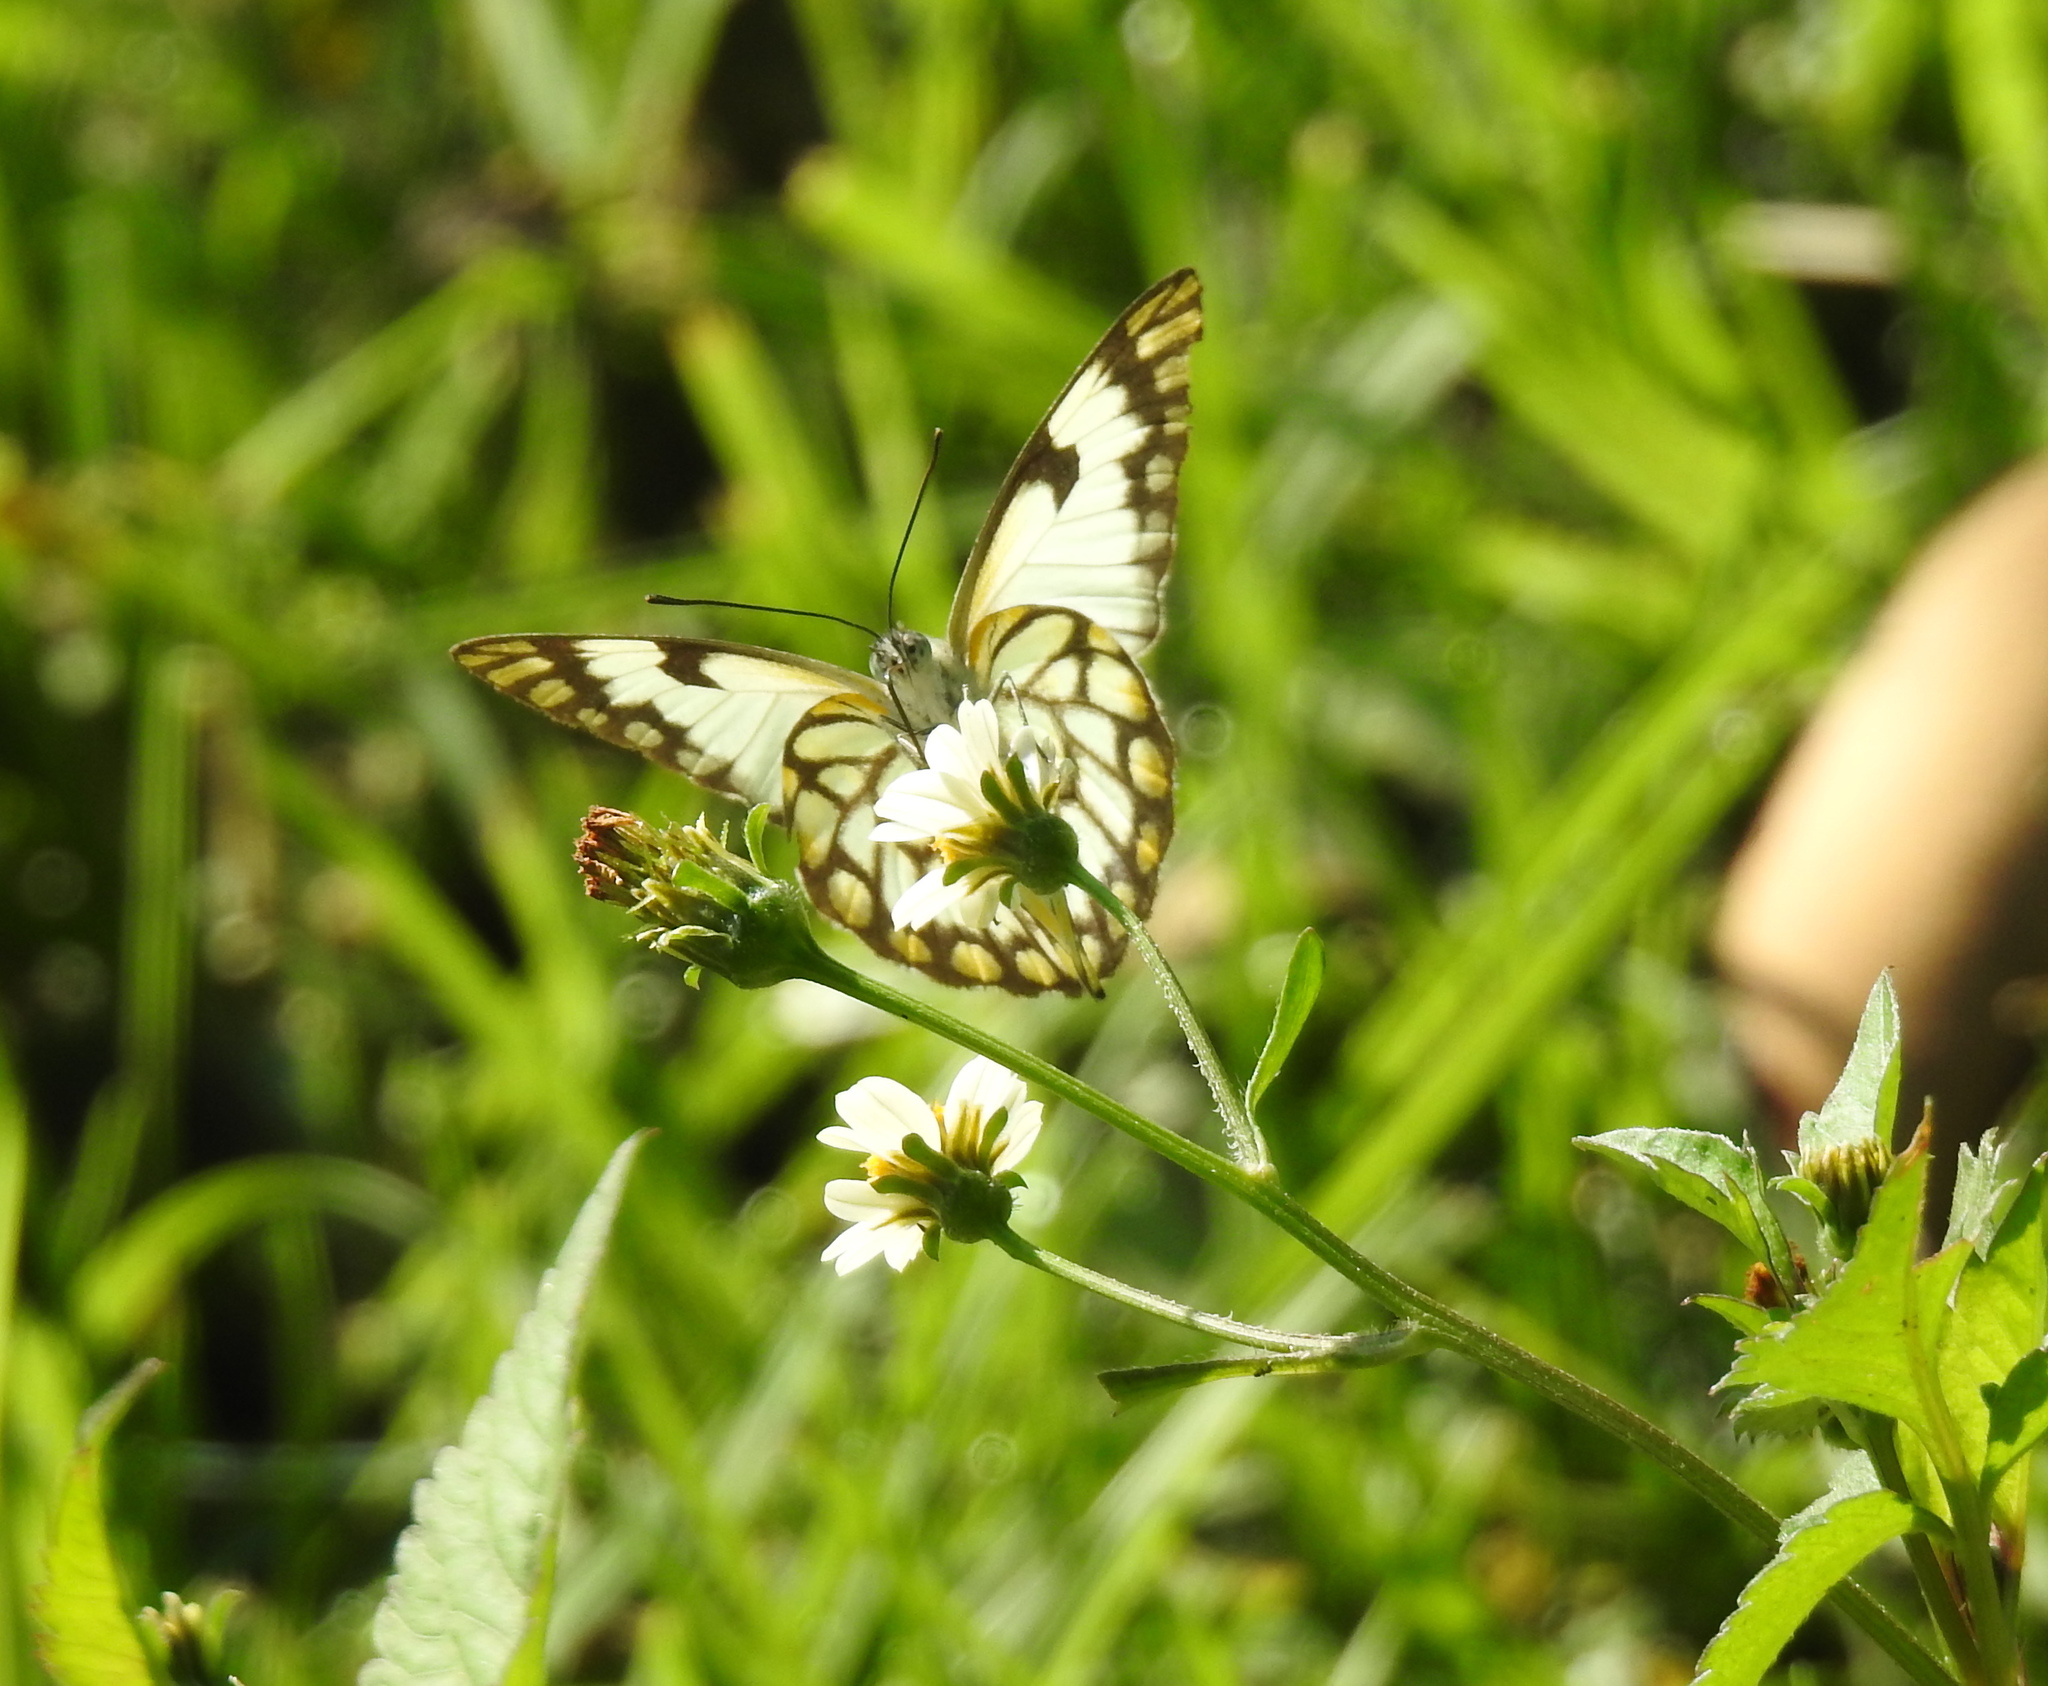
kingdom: Animalia
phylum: Arthropoda
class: Insecta
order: Lepidoptera
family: Pieridae
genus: Belenois
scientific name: Belenois aurota
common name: Brown-veined white
